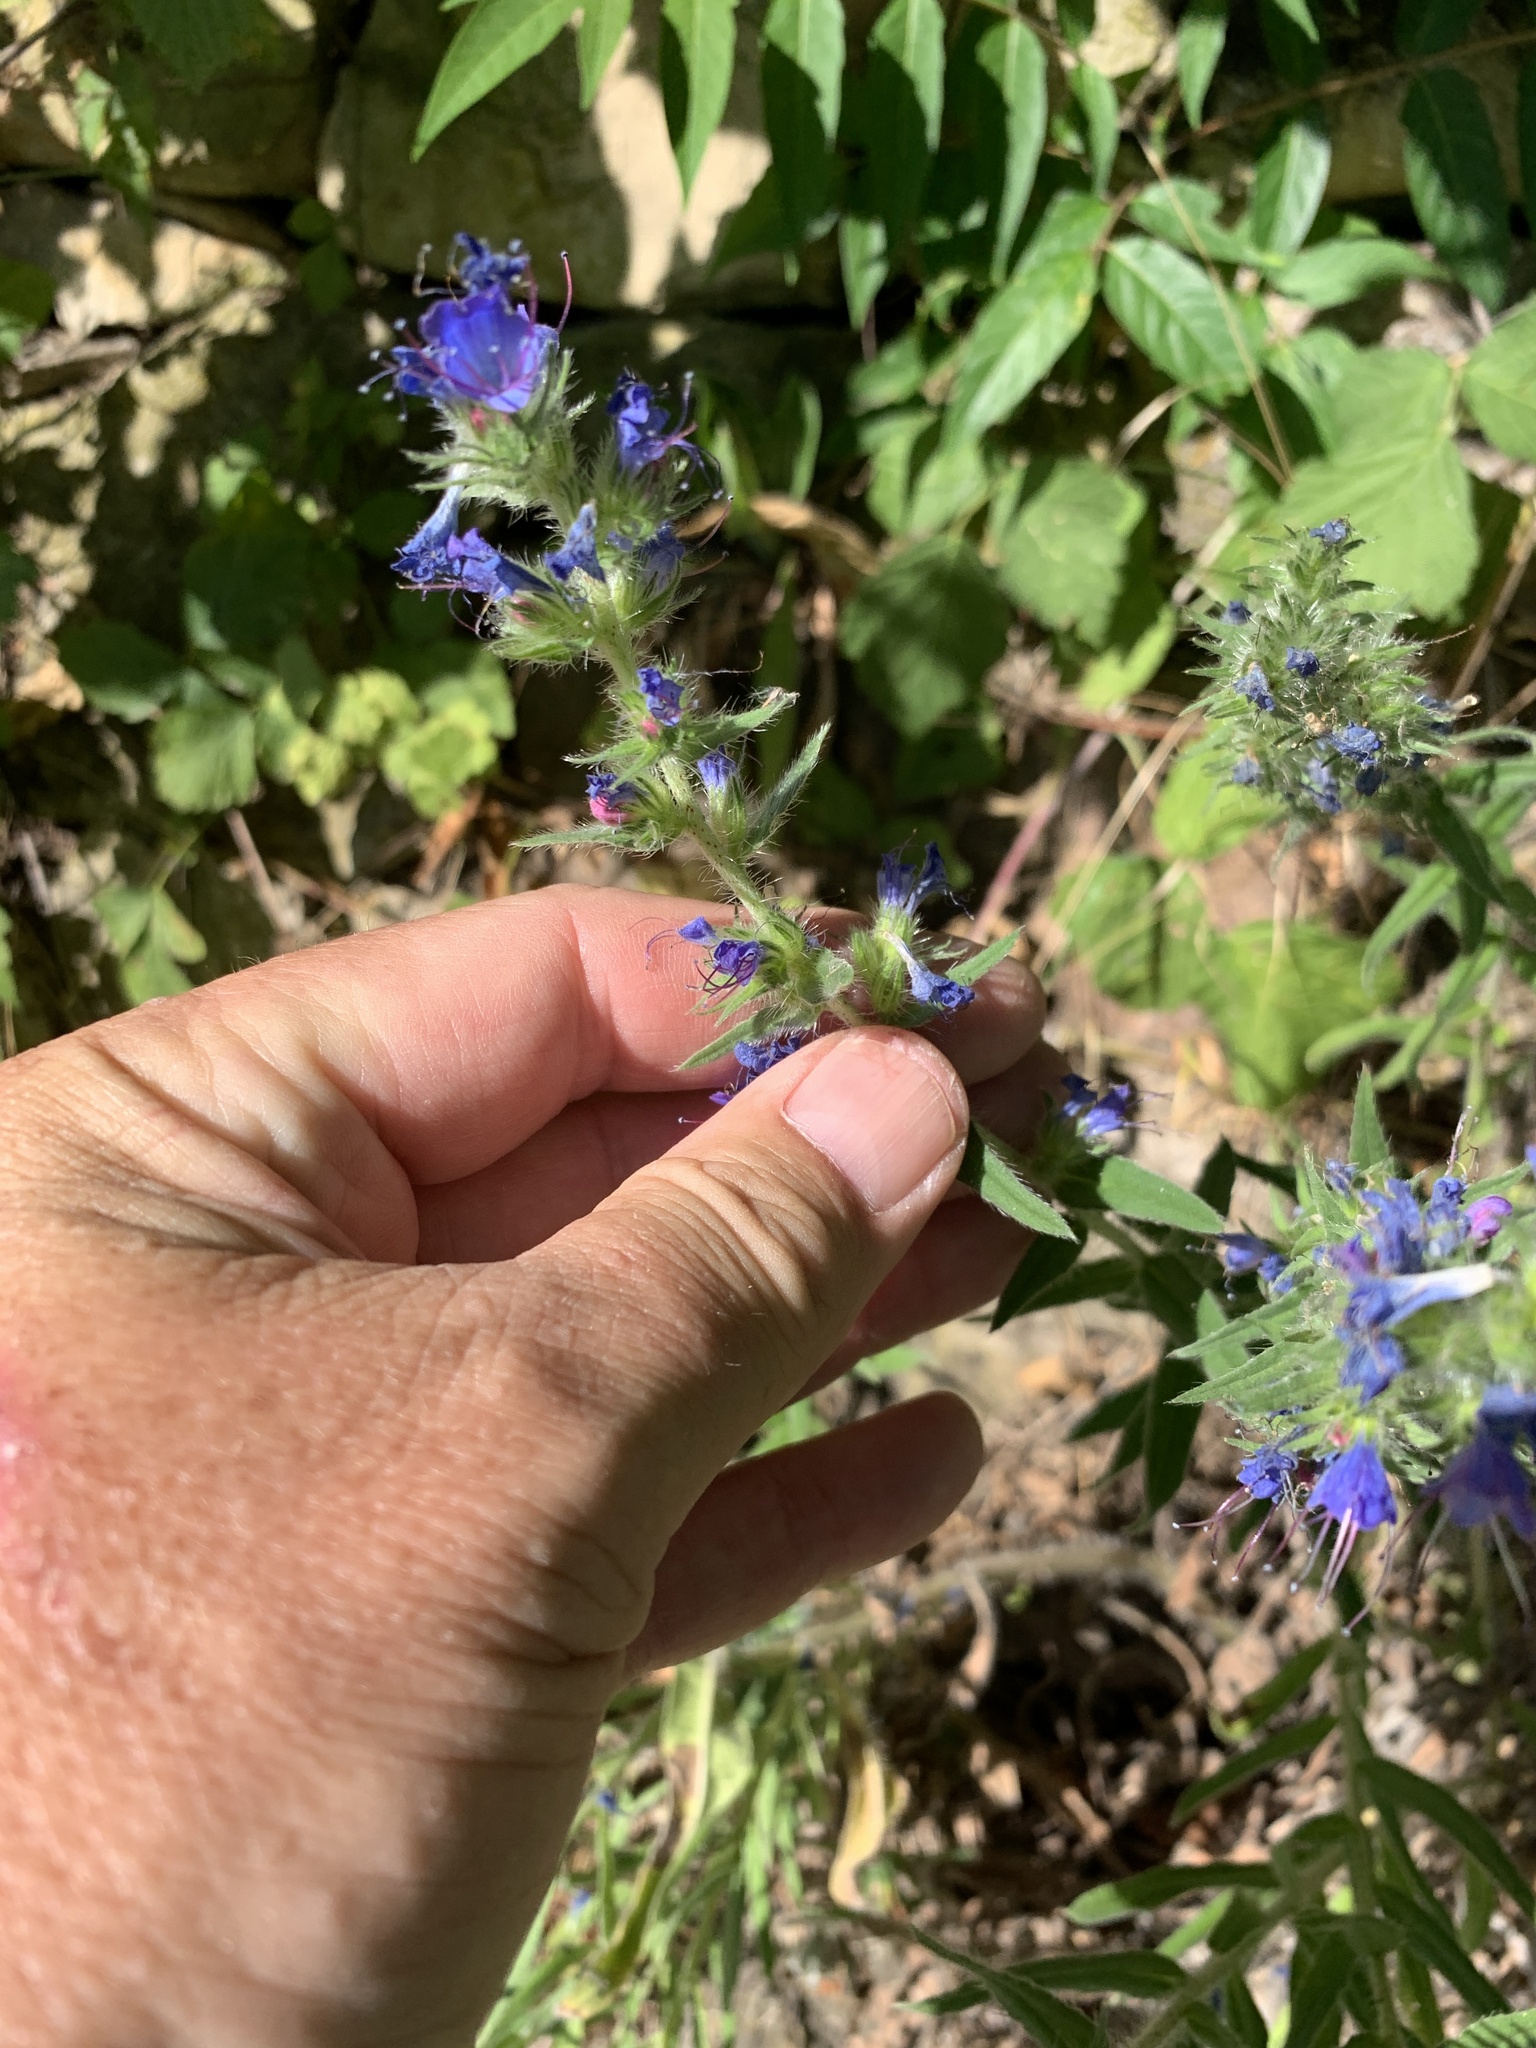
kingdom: Plantae
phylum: Tracheophyta
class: Magnoliopsida
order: Boraginales
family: Boraginaceae
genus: Echium
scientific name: Echium vulgare
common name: Common viper's bugloss
